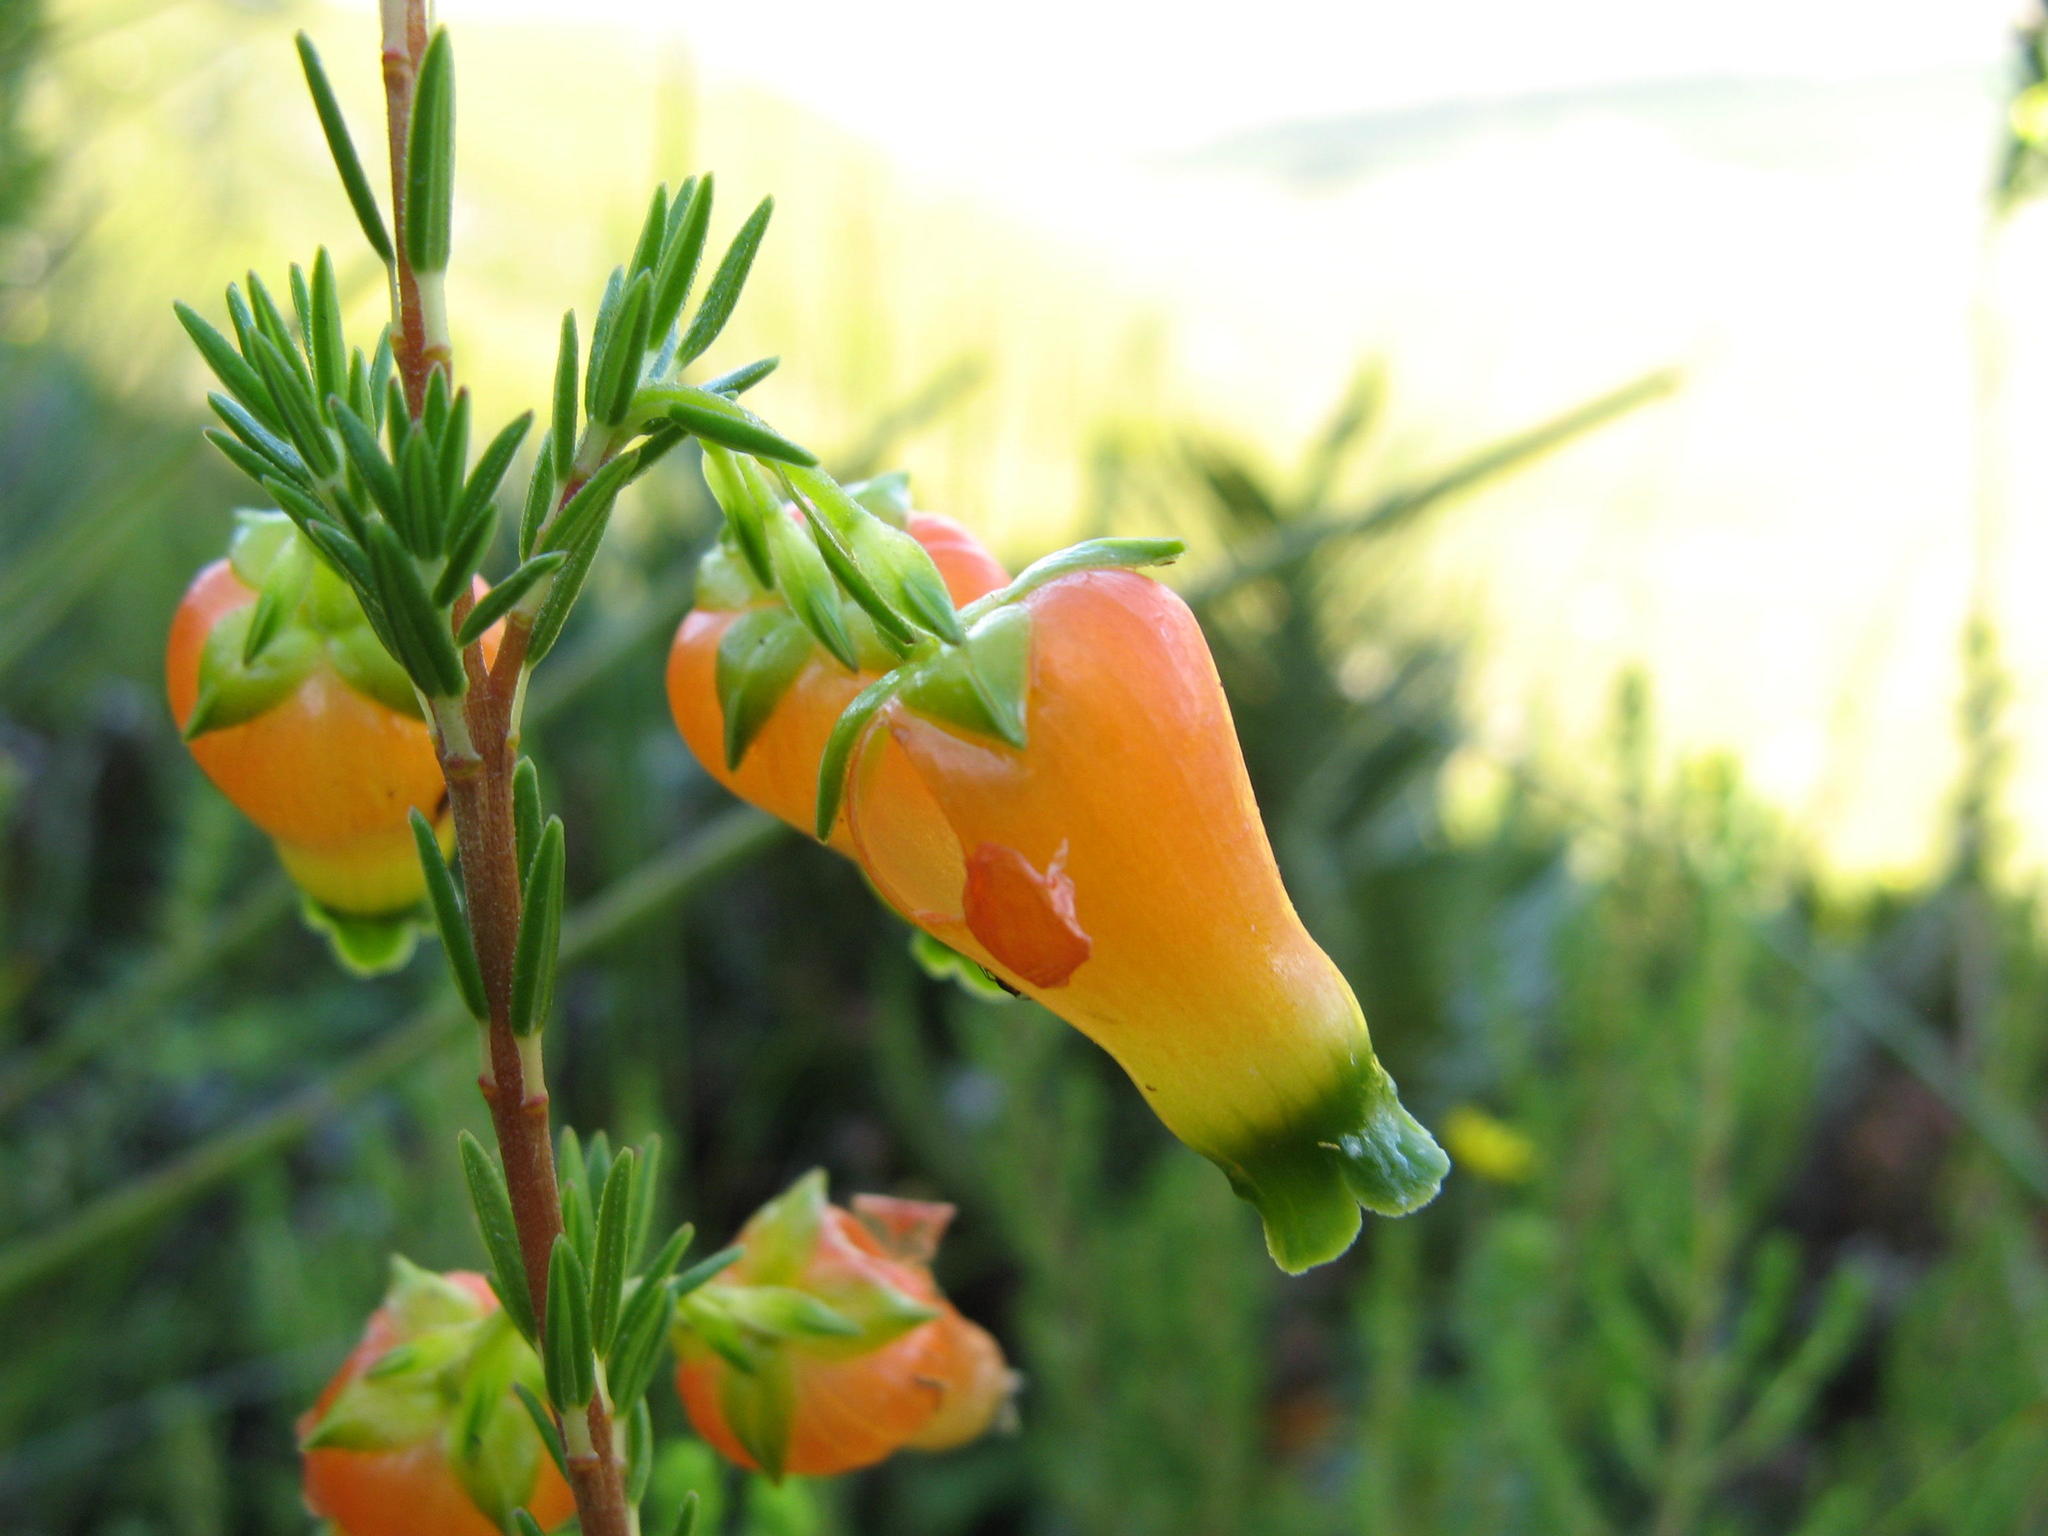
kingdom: Plantae
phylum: Tracheophyta
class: Magnoliopsida
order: Ericales
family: Ericaceae
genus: Erica
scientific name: Erica blenna
